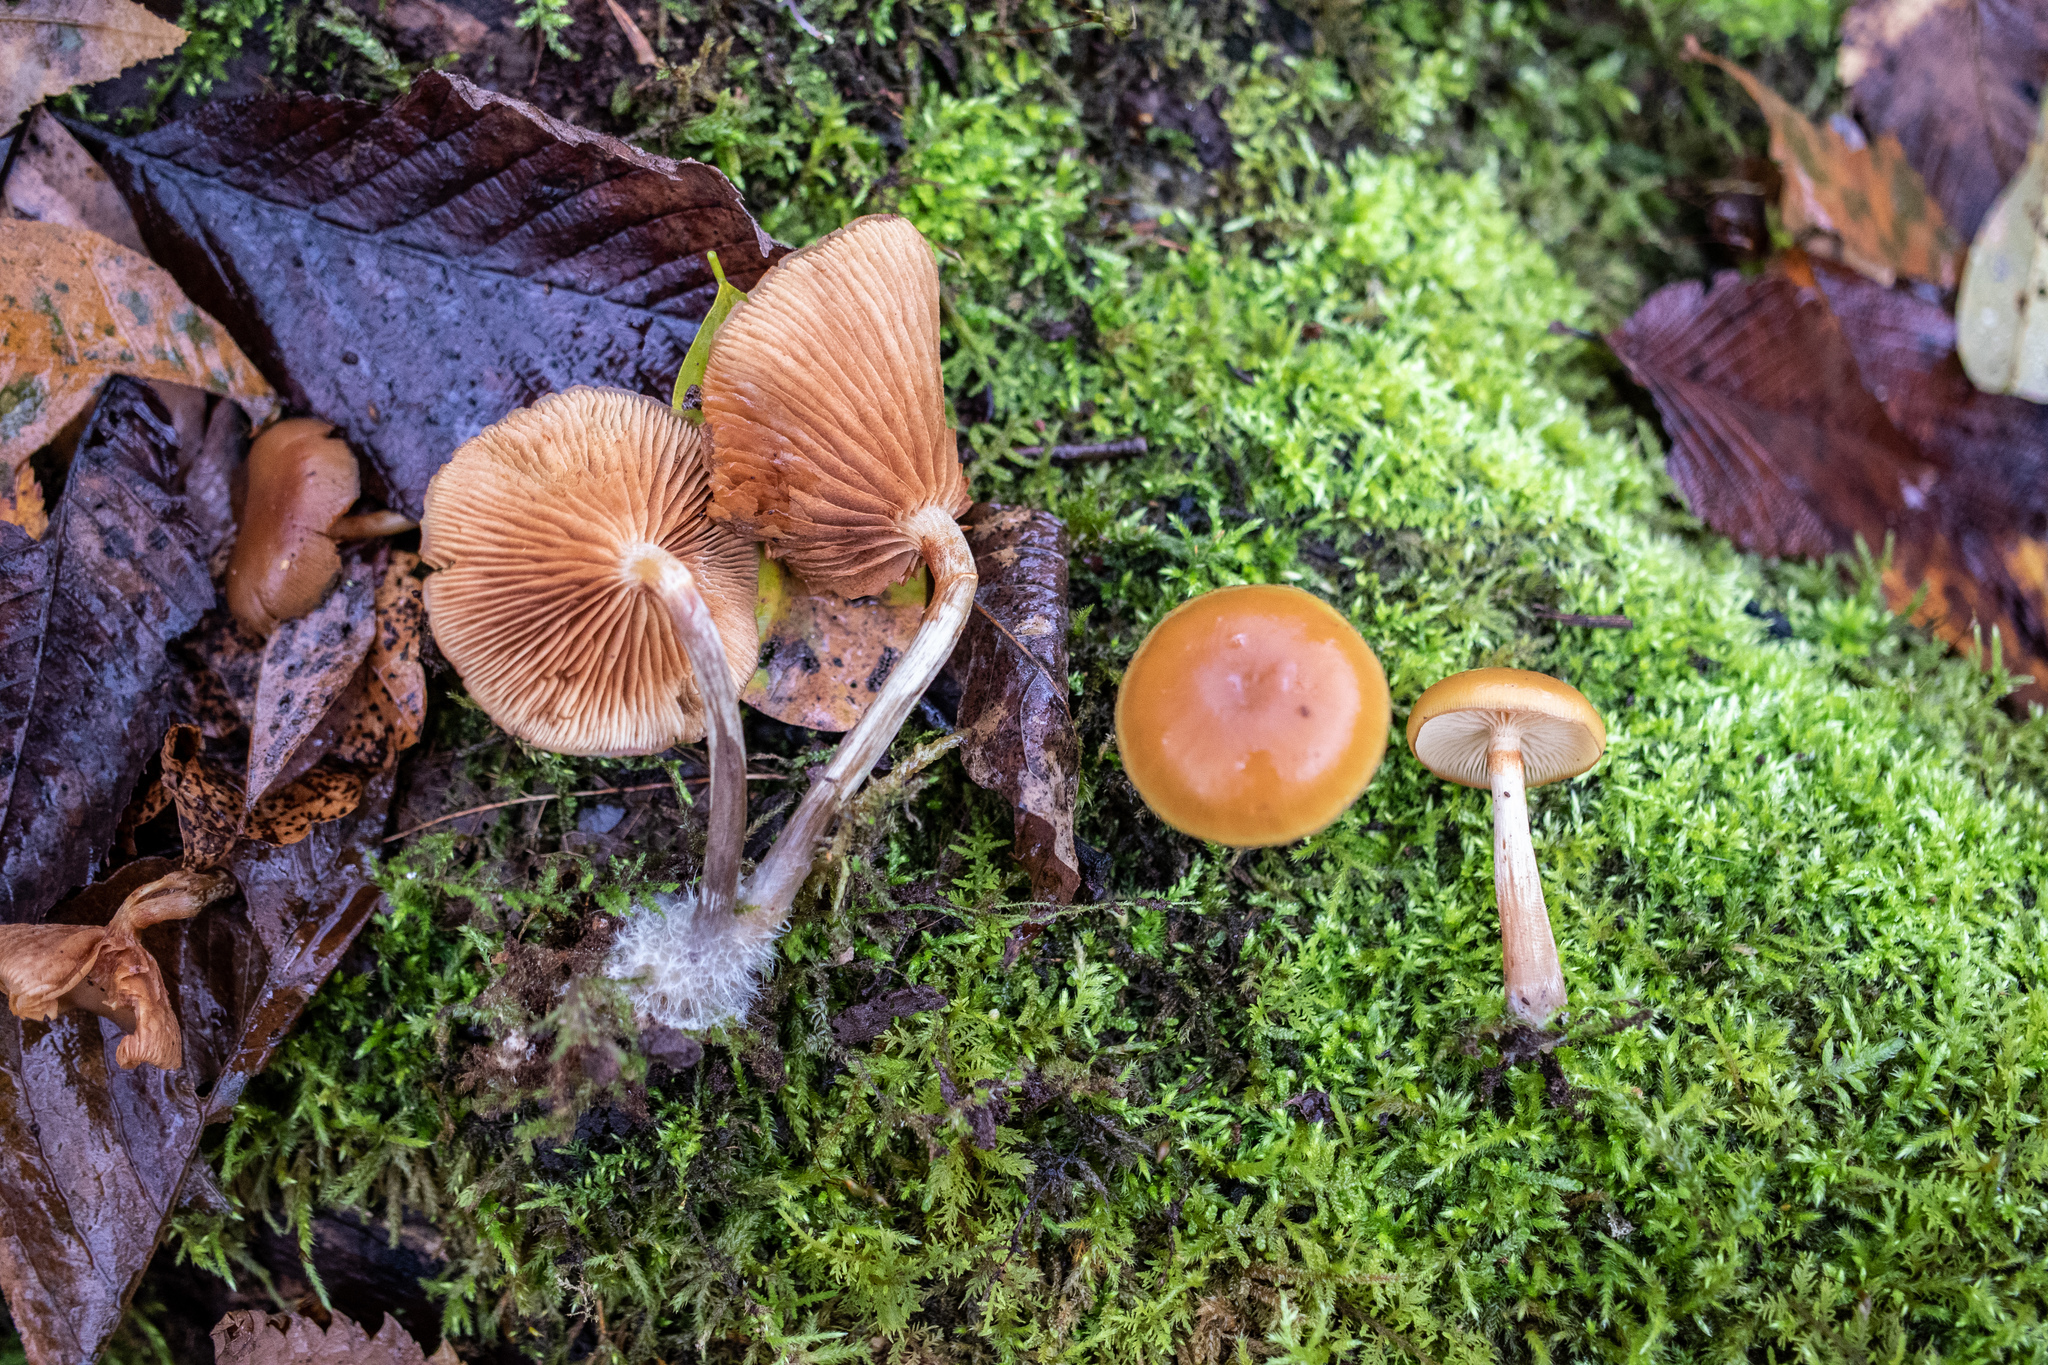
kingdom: Fungi
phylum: Basidiomycota
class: Agaricomycetes
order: Agaricales
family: Hymenogastraceae
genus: Galerina
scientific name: Galerina marginata
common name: Funeral bell
